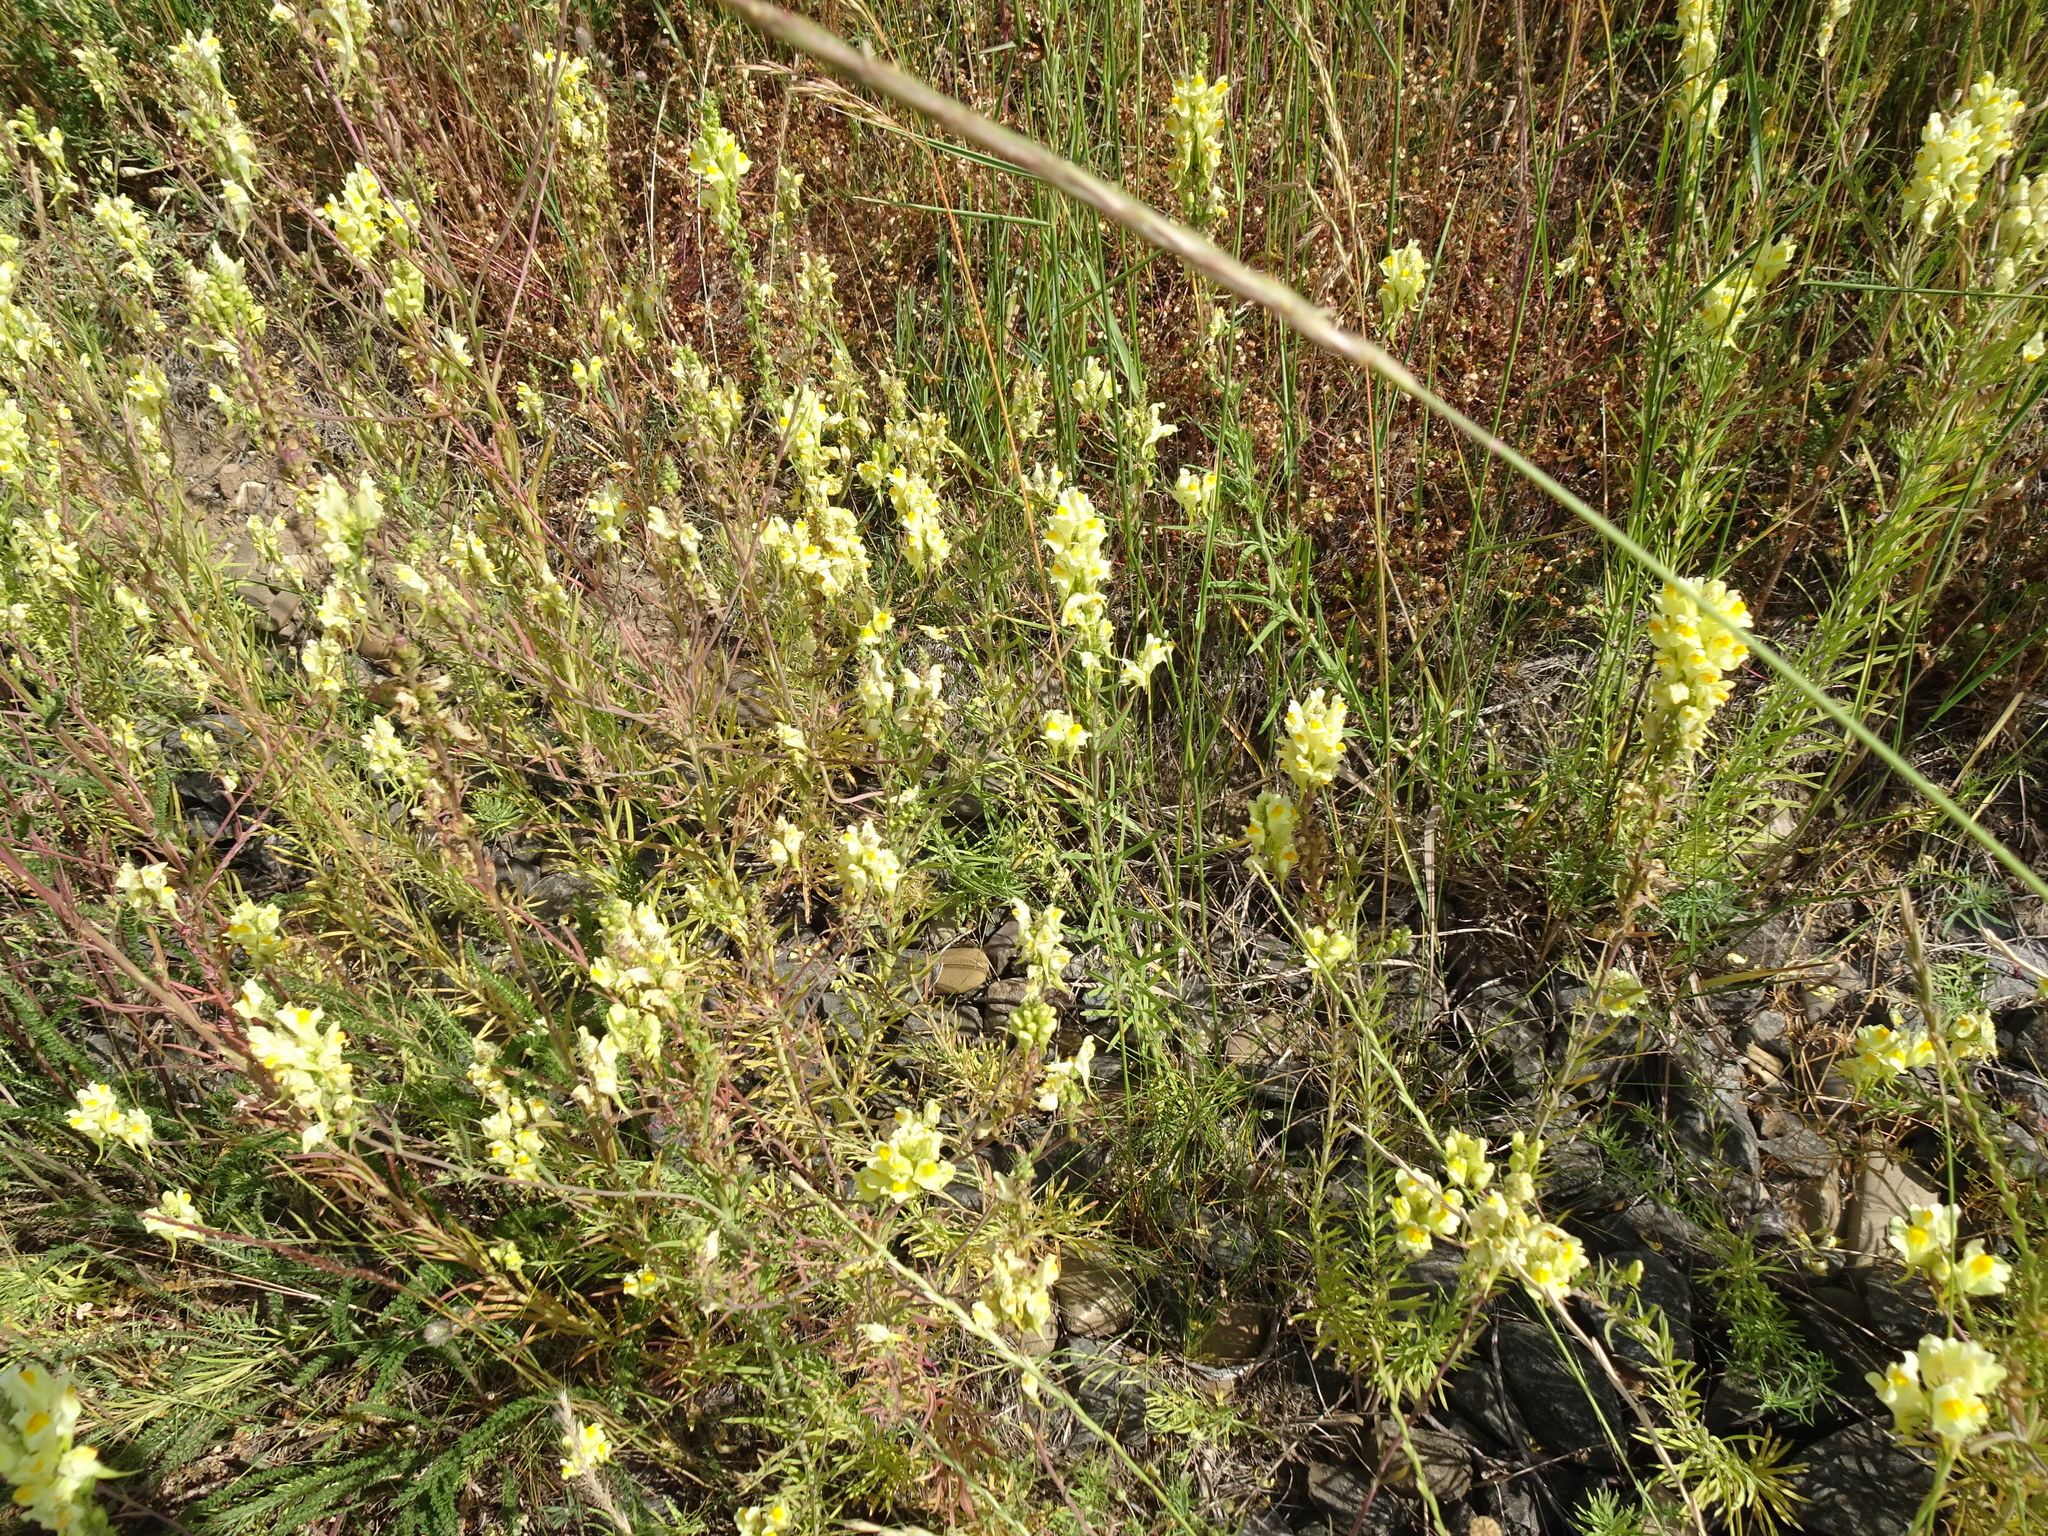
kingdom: Plantae
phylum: Tracheophyta
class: Magnoliopsida
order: Lamiales
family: Plantaginaceae
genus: Linaria
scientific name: Linaria vulgaris
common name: Butter and eggs
